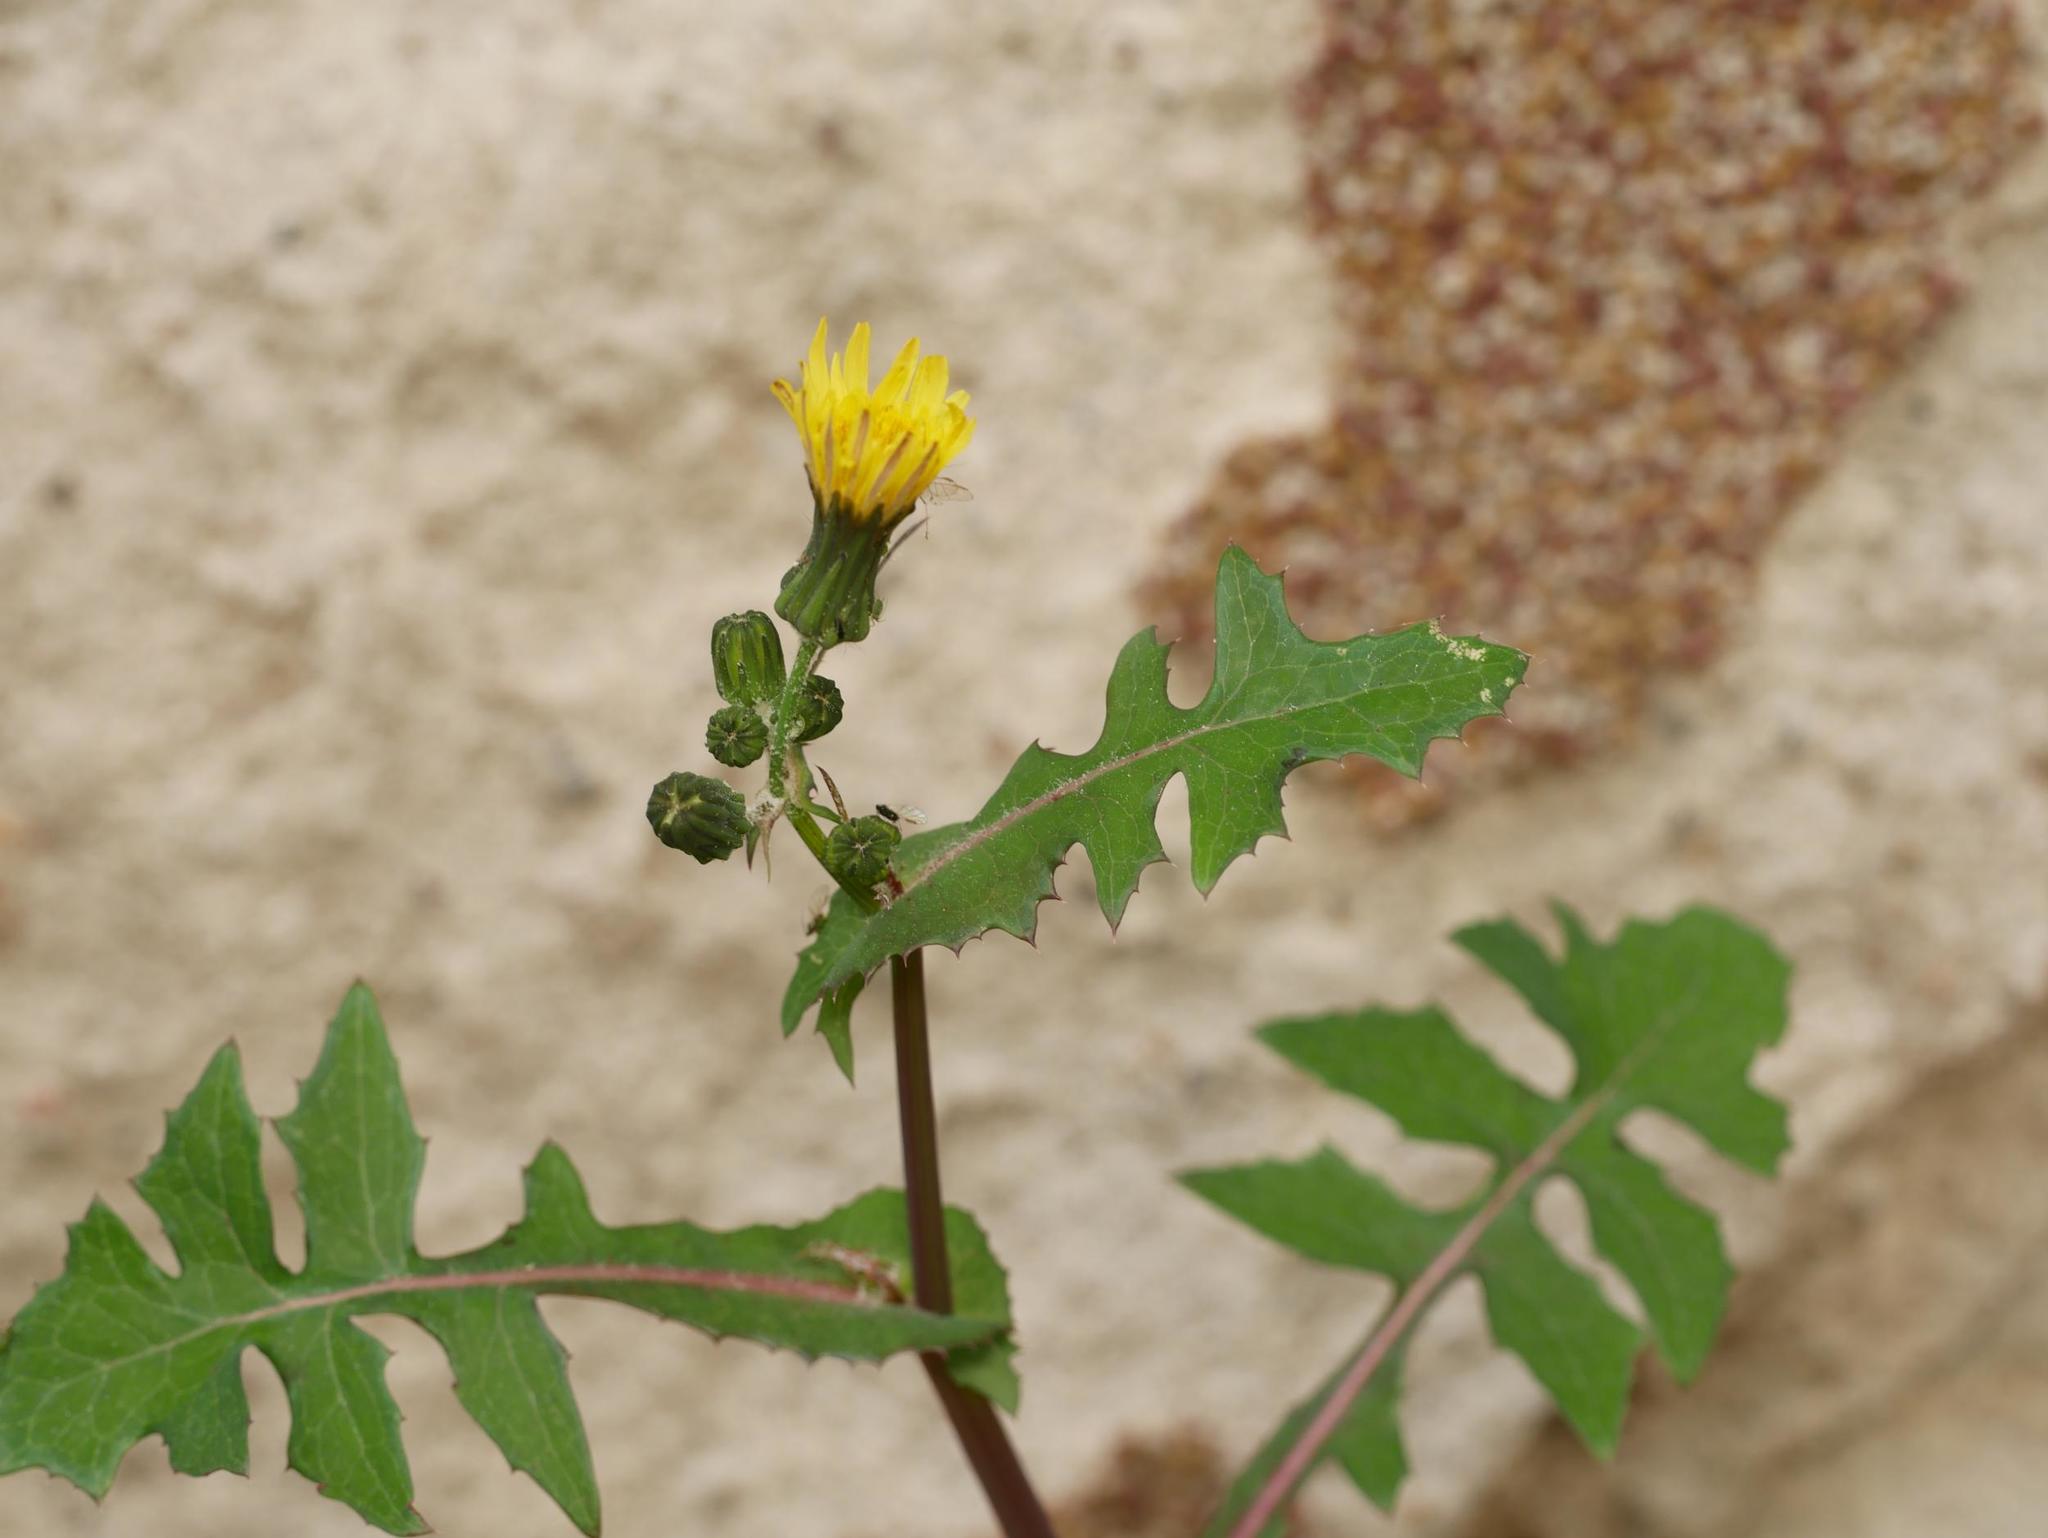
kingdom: Plantae
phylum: Tracheophyta
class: Magnoliopsida
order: Asterales
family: Asteraceae
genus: Sonchus
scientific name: Sonchus oleraceus
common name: Common sowthistle
